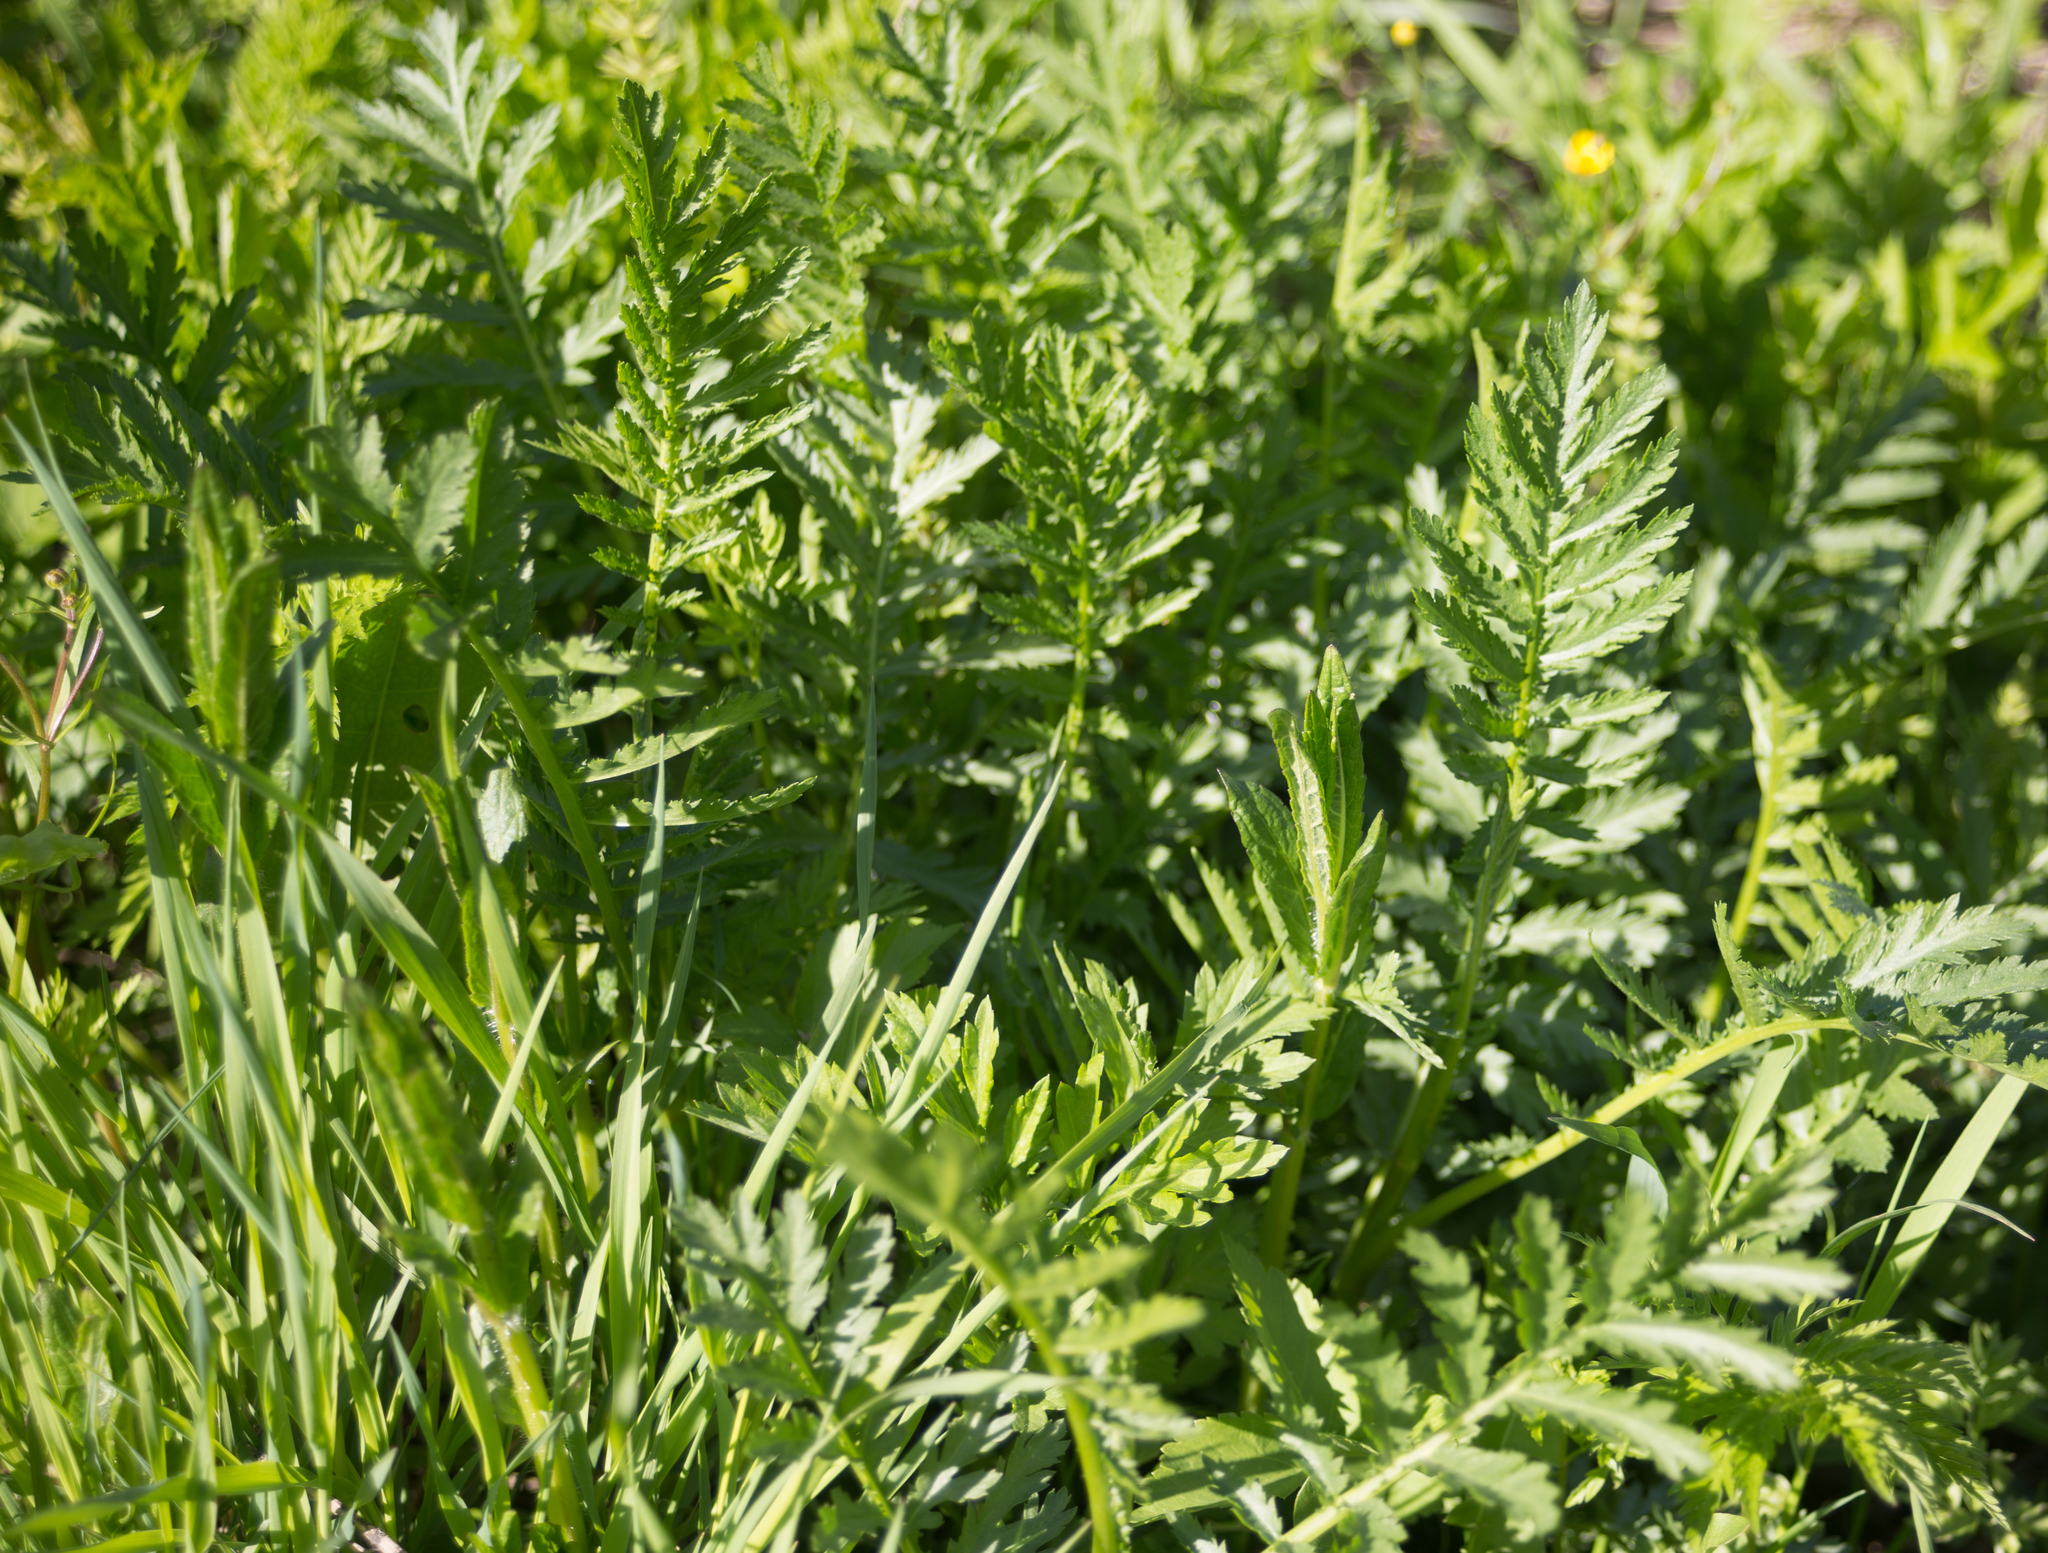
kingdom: Plantae
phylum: Tracheophyta
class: Magnoliopsida
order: Asterales
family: Asteraceae
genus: Tanacetum
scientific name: Tanacetum vulgare
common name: Common tansy
